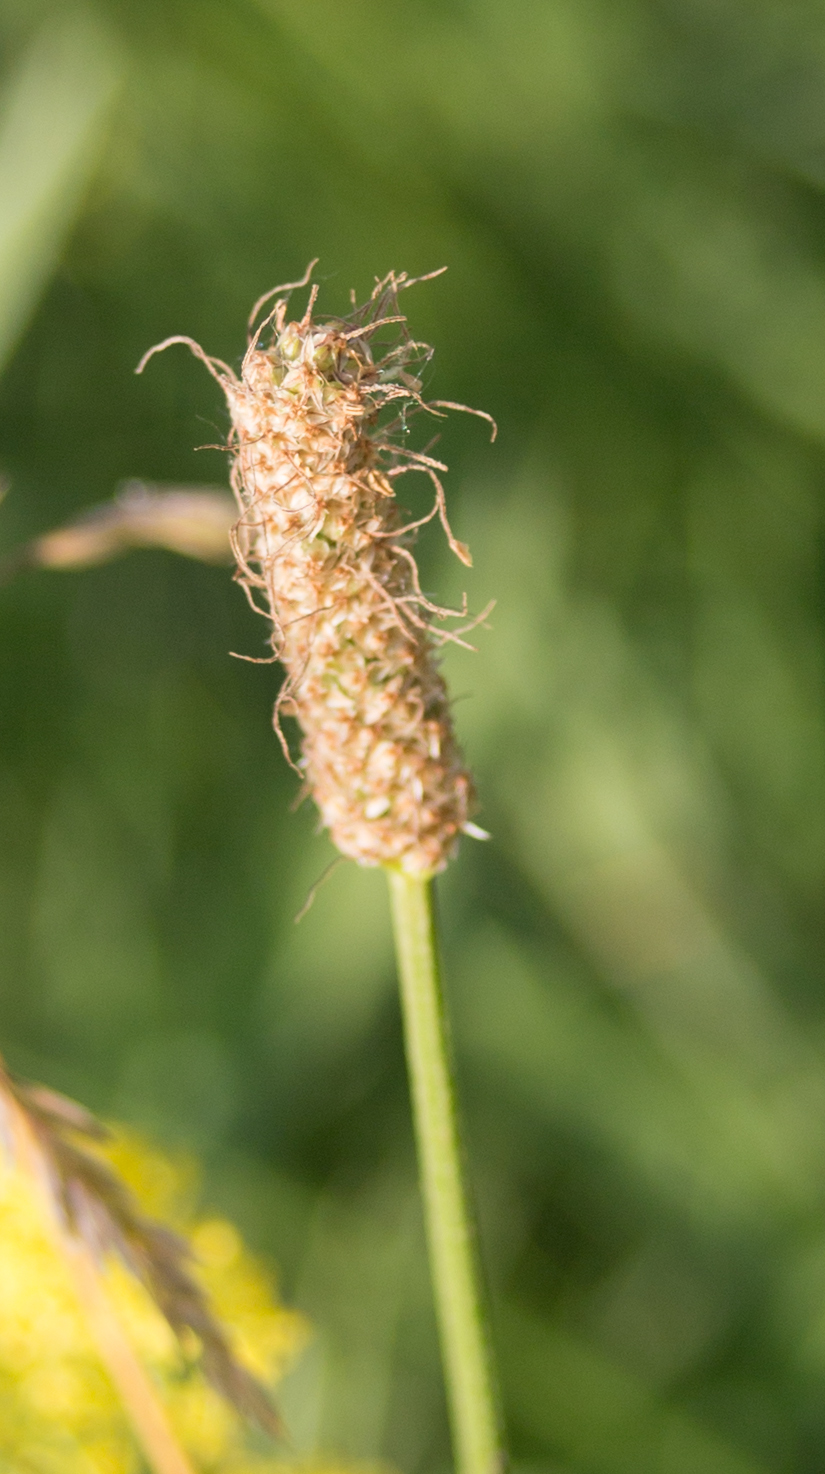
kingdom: Plantae
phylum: Tracheophyta
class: Magnoliopsida
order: Lamiales
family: Plantaginaceae
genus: Plantago
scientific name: Plantago lanceolata
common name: Ribwort plantain
